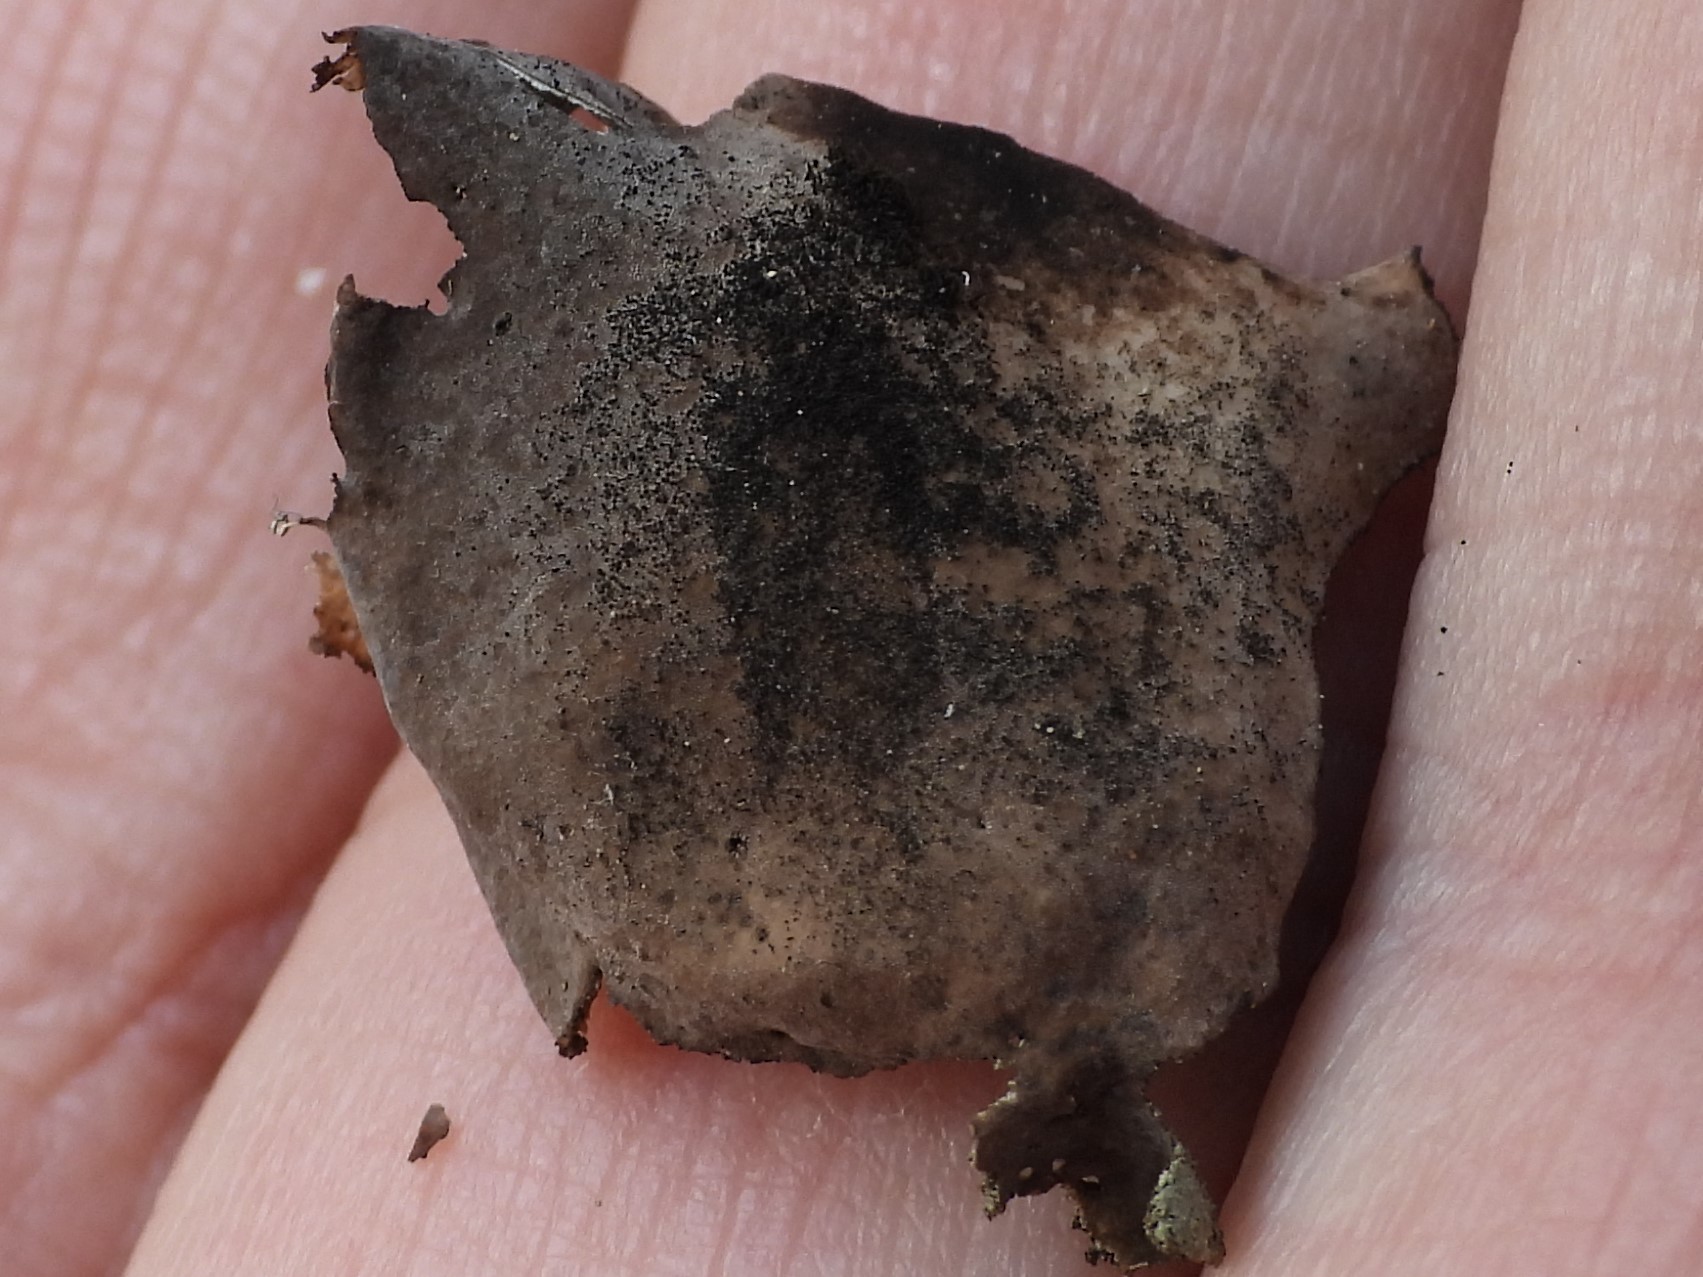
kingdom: Fungi
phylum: Ascomycota
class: Eurotiomycetes
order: Verrucariales
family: Verrucariaceae
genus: Dermatocarpon
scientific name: Dermatocarpon miniatum
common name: Leather lichen
